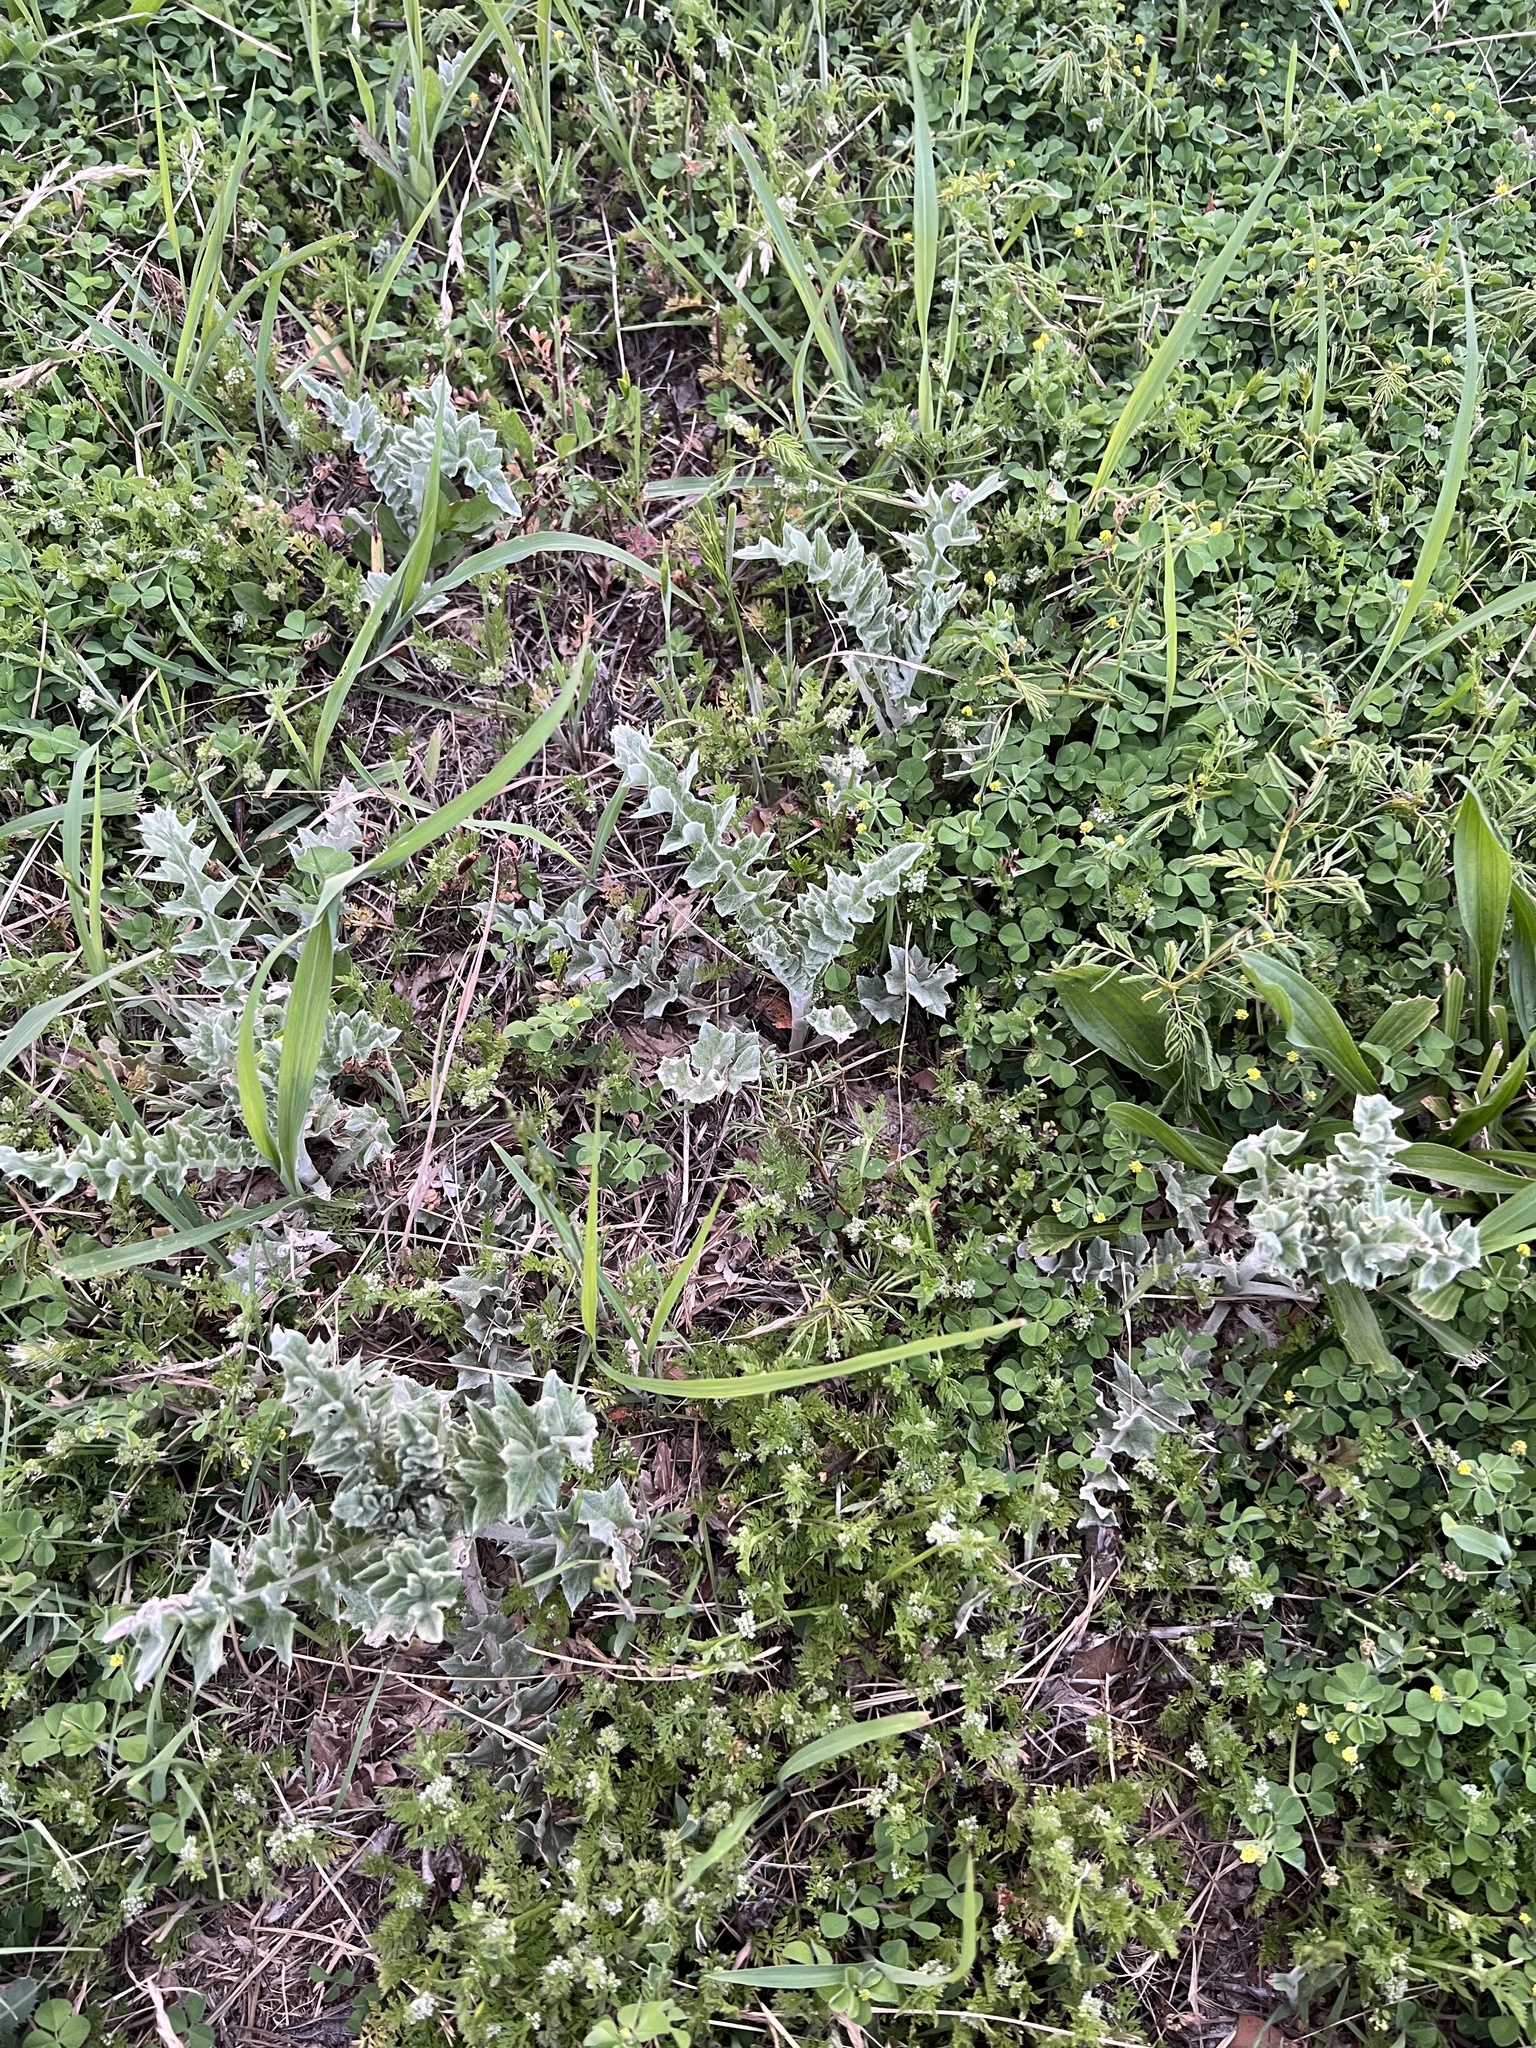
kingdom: Plantae
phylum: Tracheophyta
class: Magnoliopsida
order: Asterales
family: Asteraceae
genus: Cirsium
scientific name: Cirsium undulatum
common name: Pasture thistle
